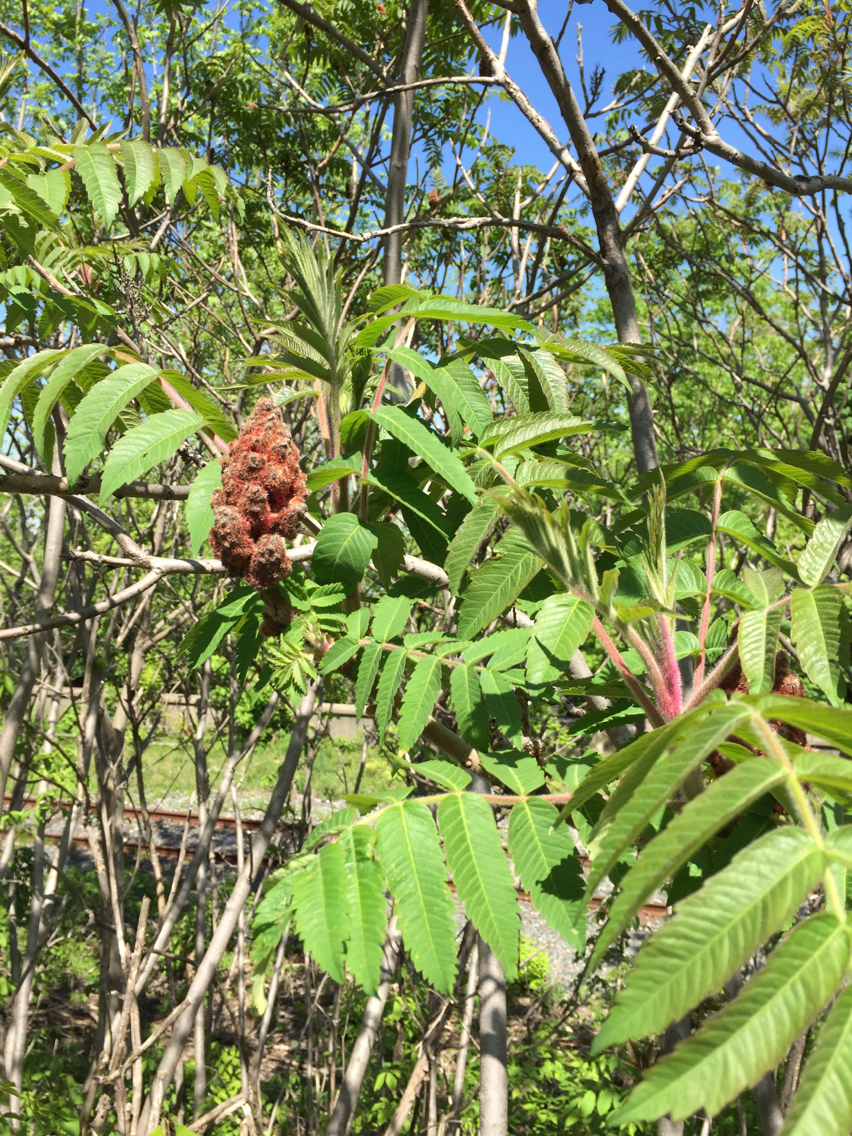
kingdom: Plantae
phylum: Tracheophyta
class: Magnoliopsida
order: Sapindales
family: Anacardiaceae
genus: Rhus
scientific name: Rhus typhina
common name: Staghorn sumac
